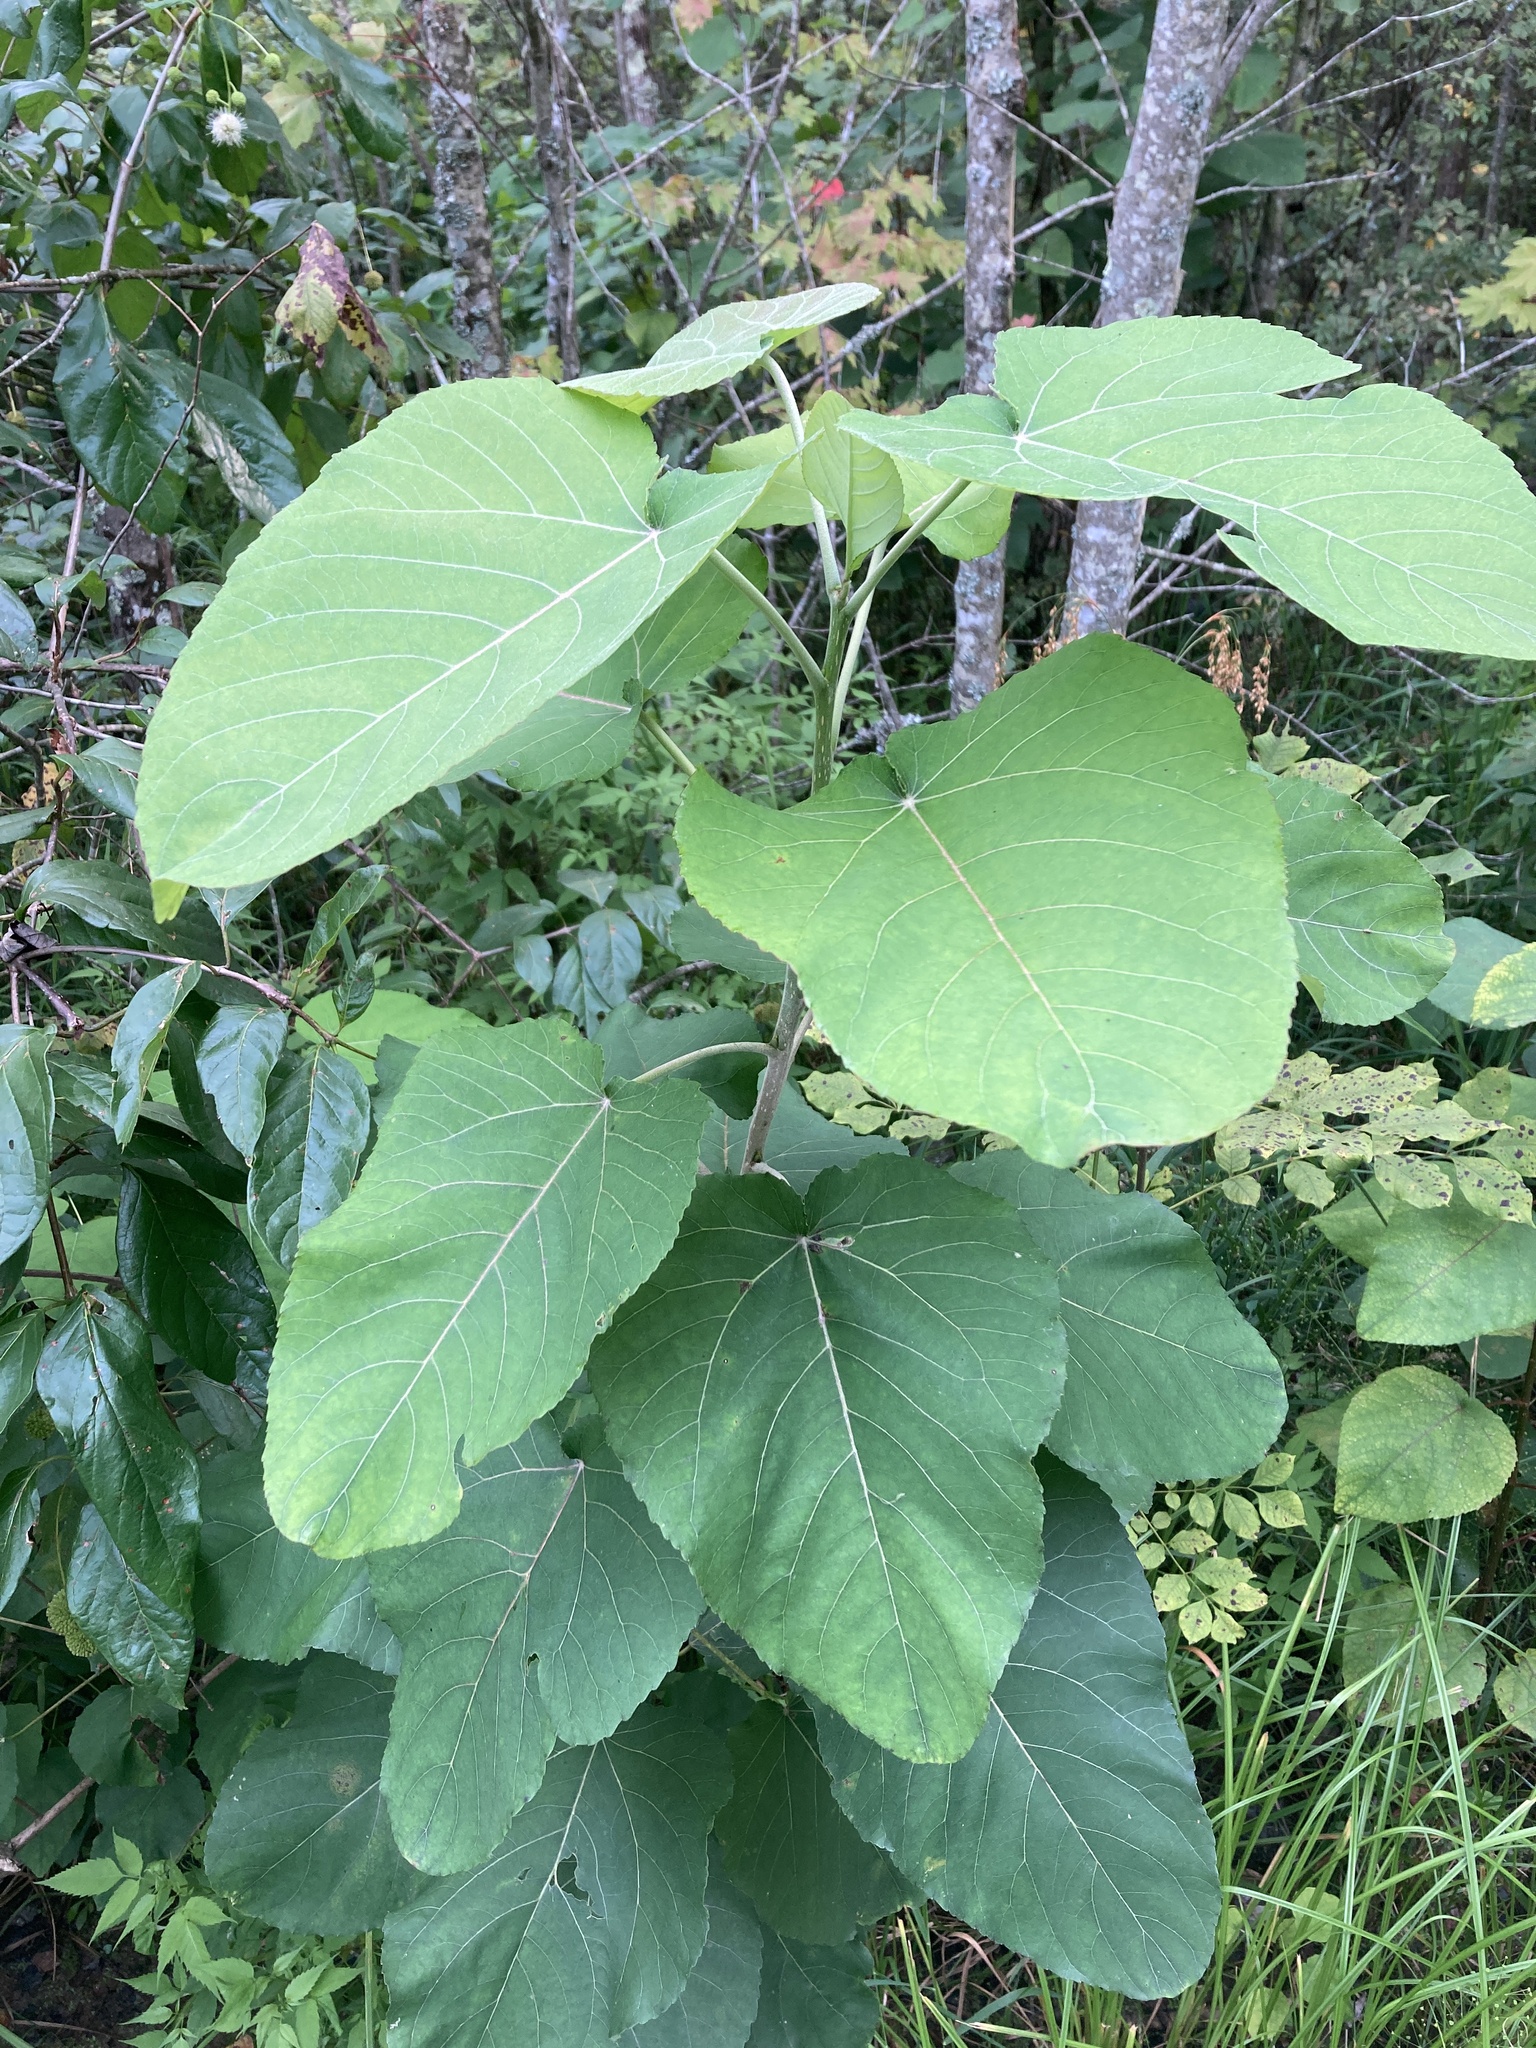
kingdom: Plantae
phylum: Tracheophyta
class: Magnoliopsida
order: Malpighiales
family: Salicaceae
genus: Populus
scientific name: Populus heterophylla
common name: Downy poplar
